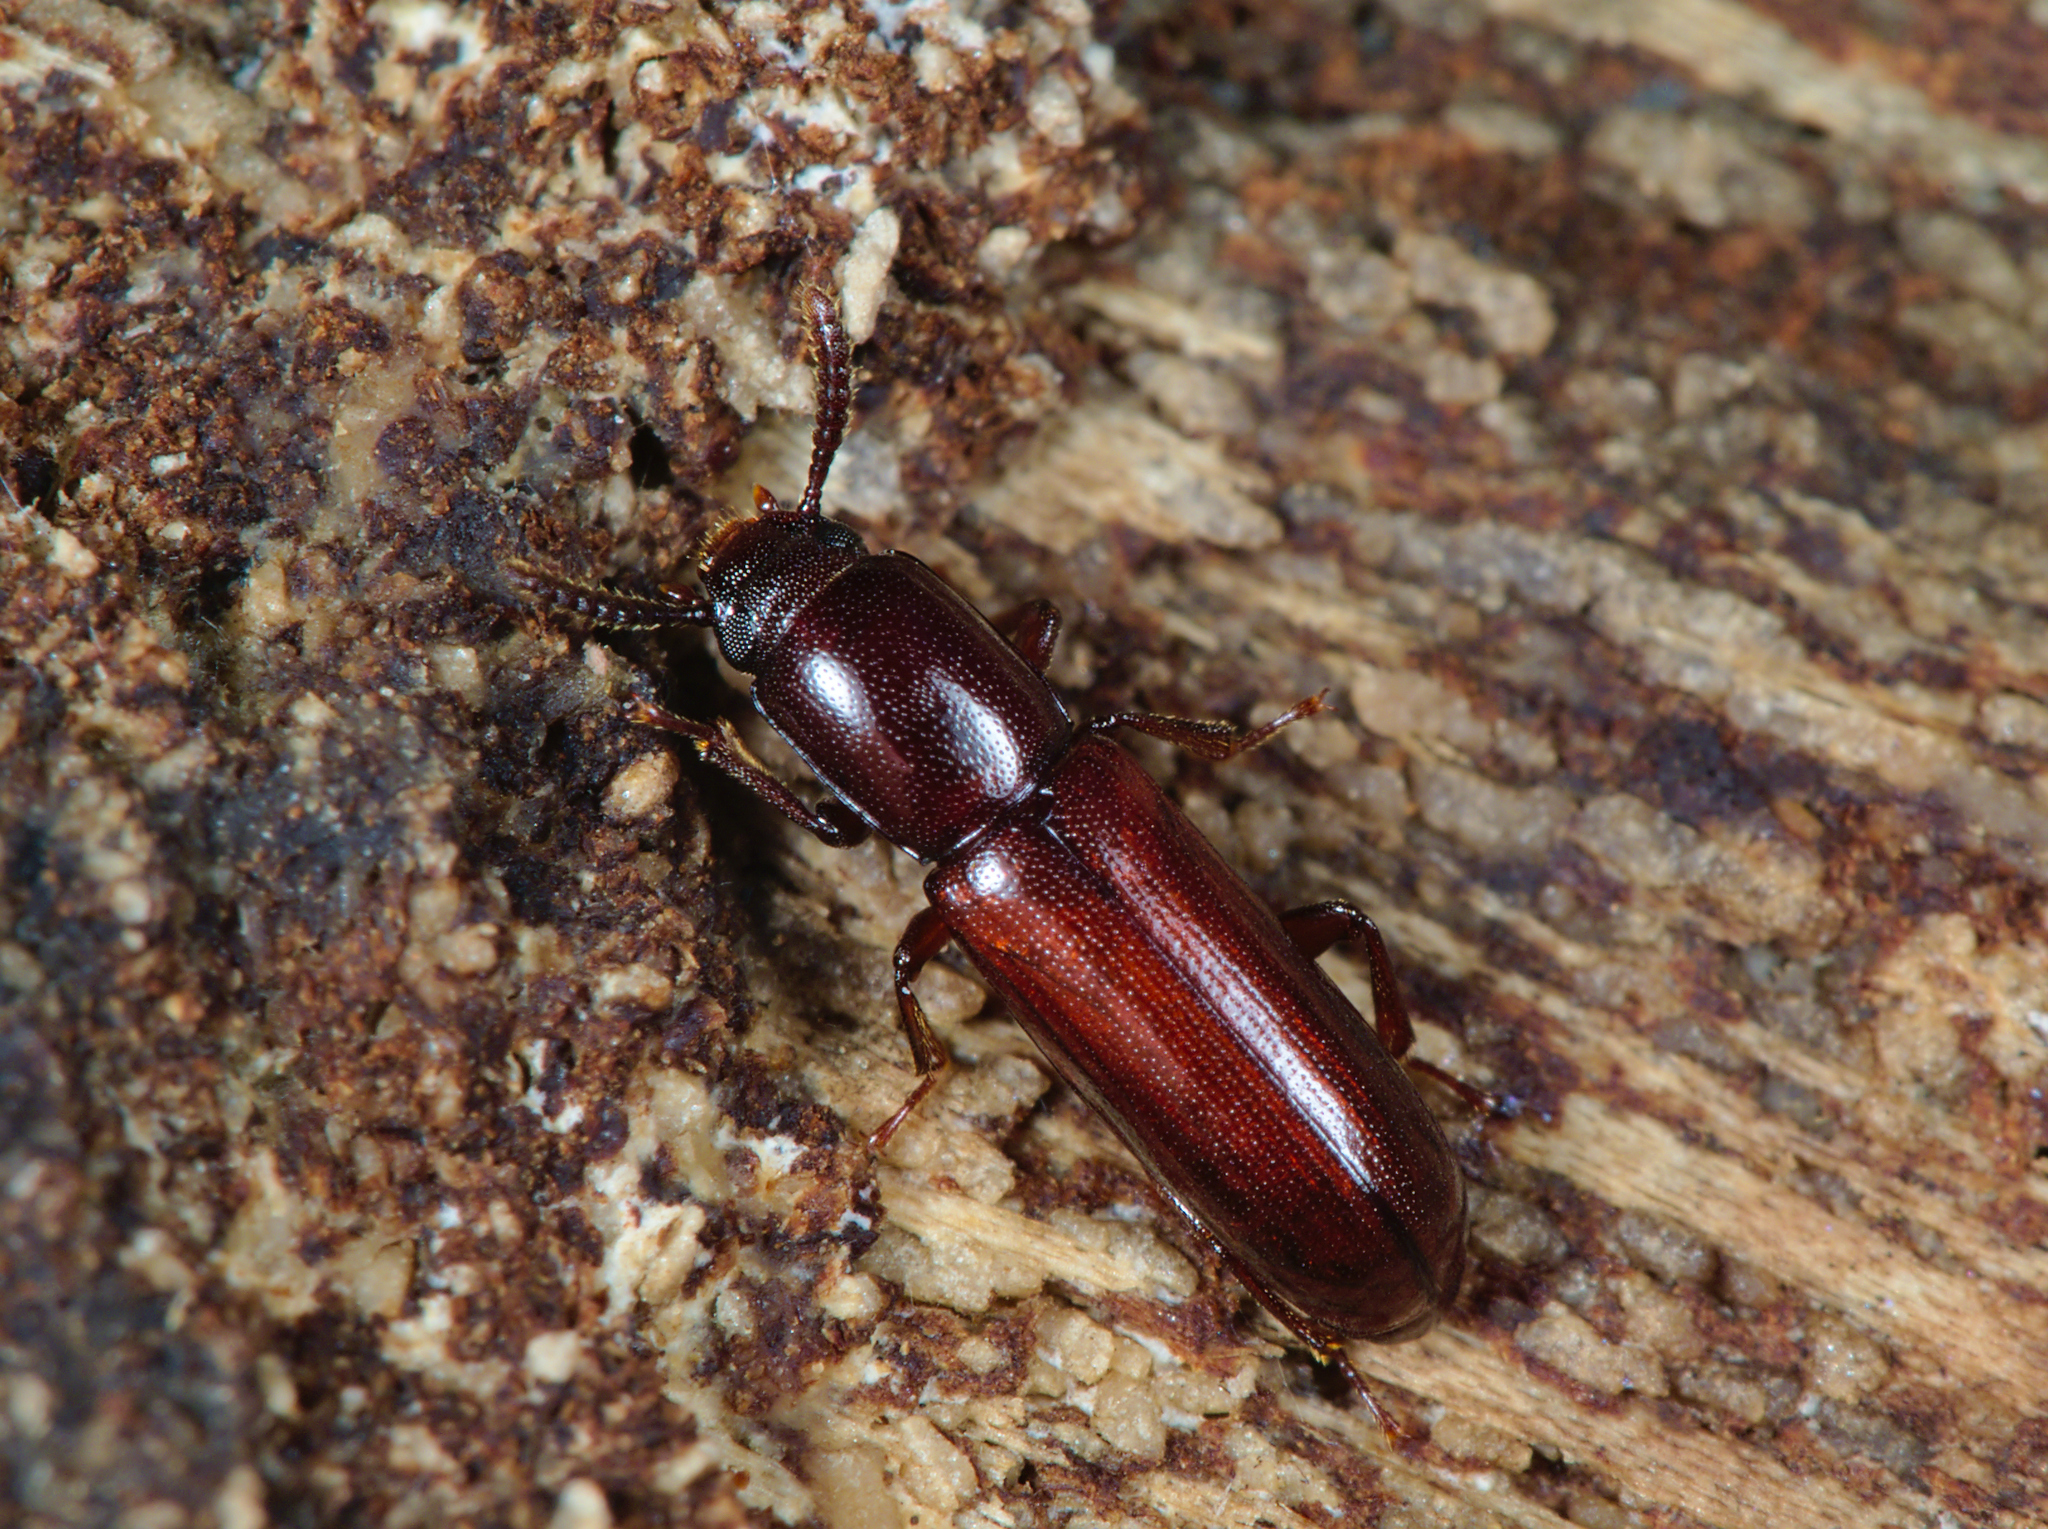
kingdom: Animalia
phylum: Arthropoda
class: Insecta
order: Coleoptera
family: Tenebrionidae
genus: Corticeus
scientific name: Corticeus unicolor
